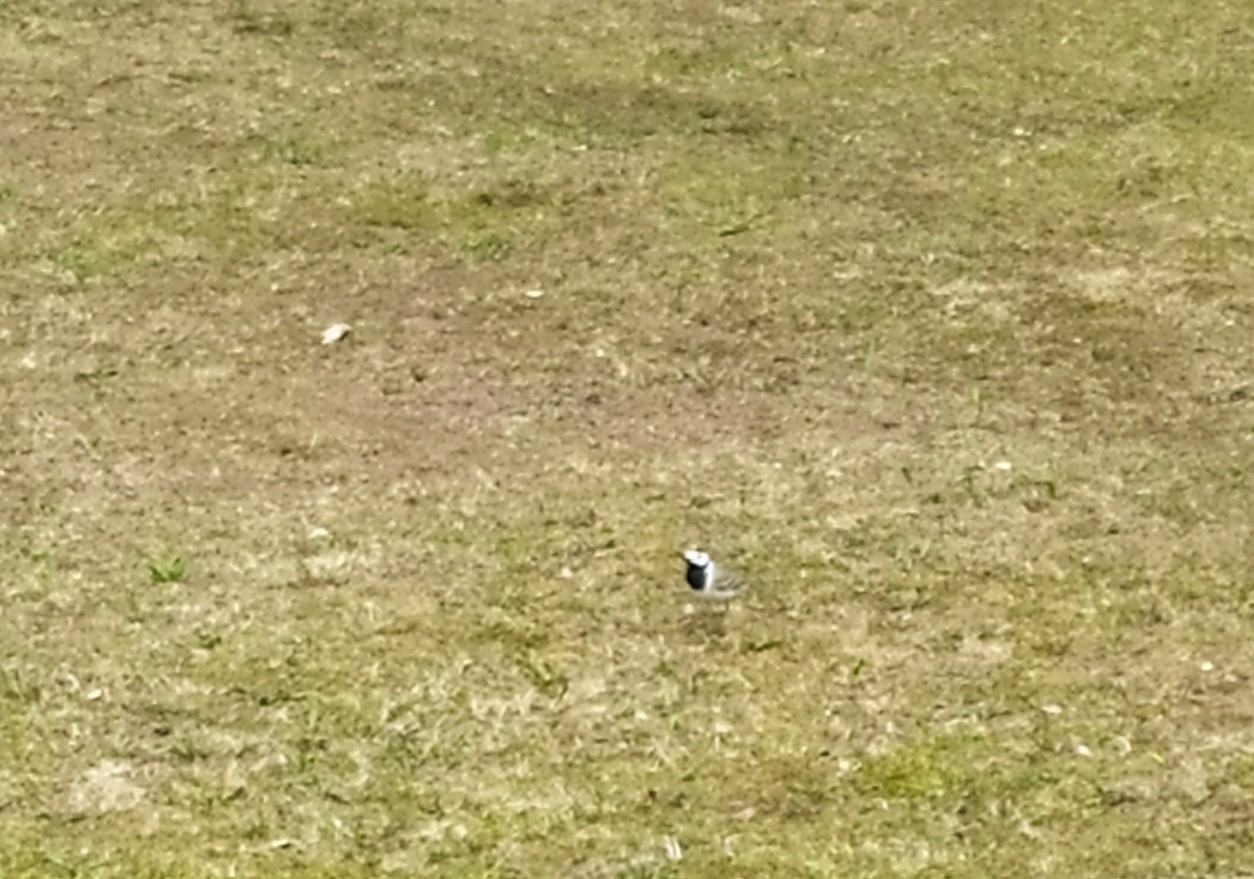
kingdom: Animalia
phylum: Chordata
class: Aves
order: Passeriformes
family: Motacillidae
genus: Motacilla
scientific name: Motacilla alba
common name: White wagtail
